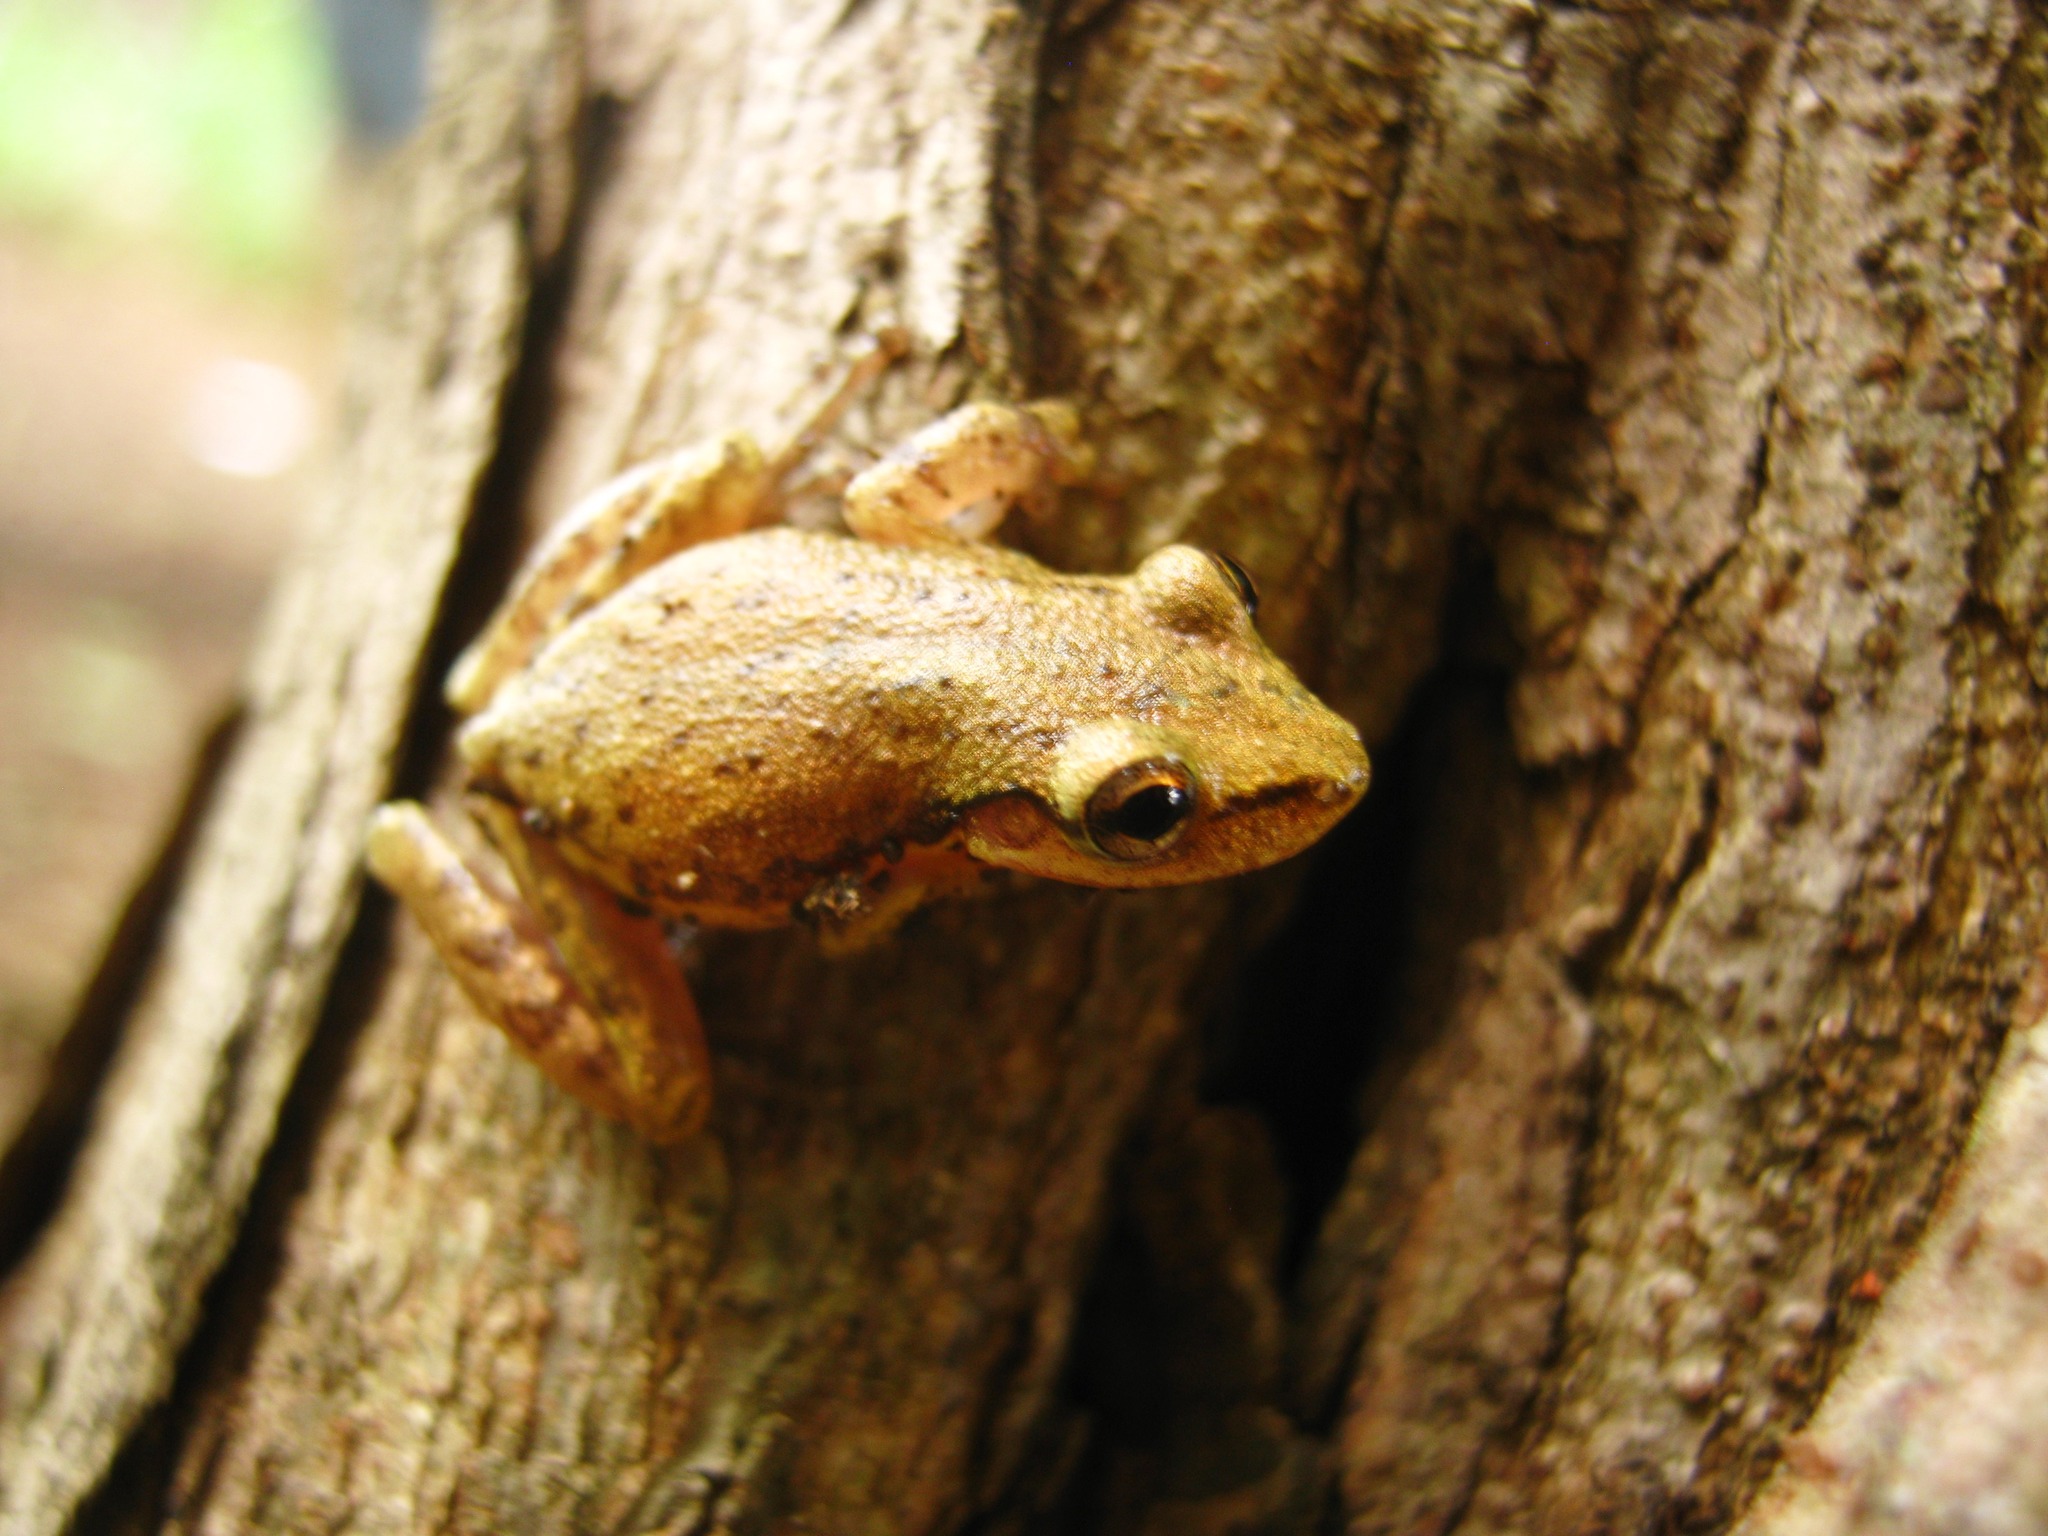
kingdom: Animalia
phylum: Chordata
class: Amphibia
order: Anura
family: Hylidae
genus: Scinax
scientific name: Scinax staufferi
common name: Stauffer's long-nosed treefrog
